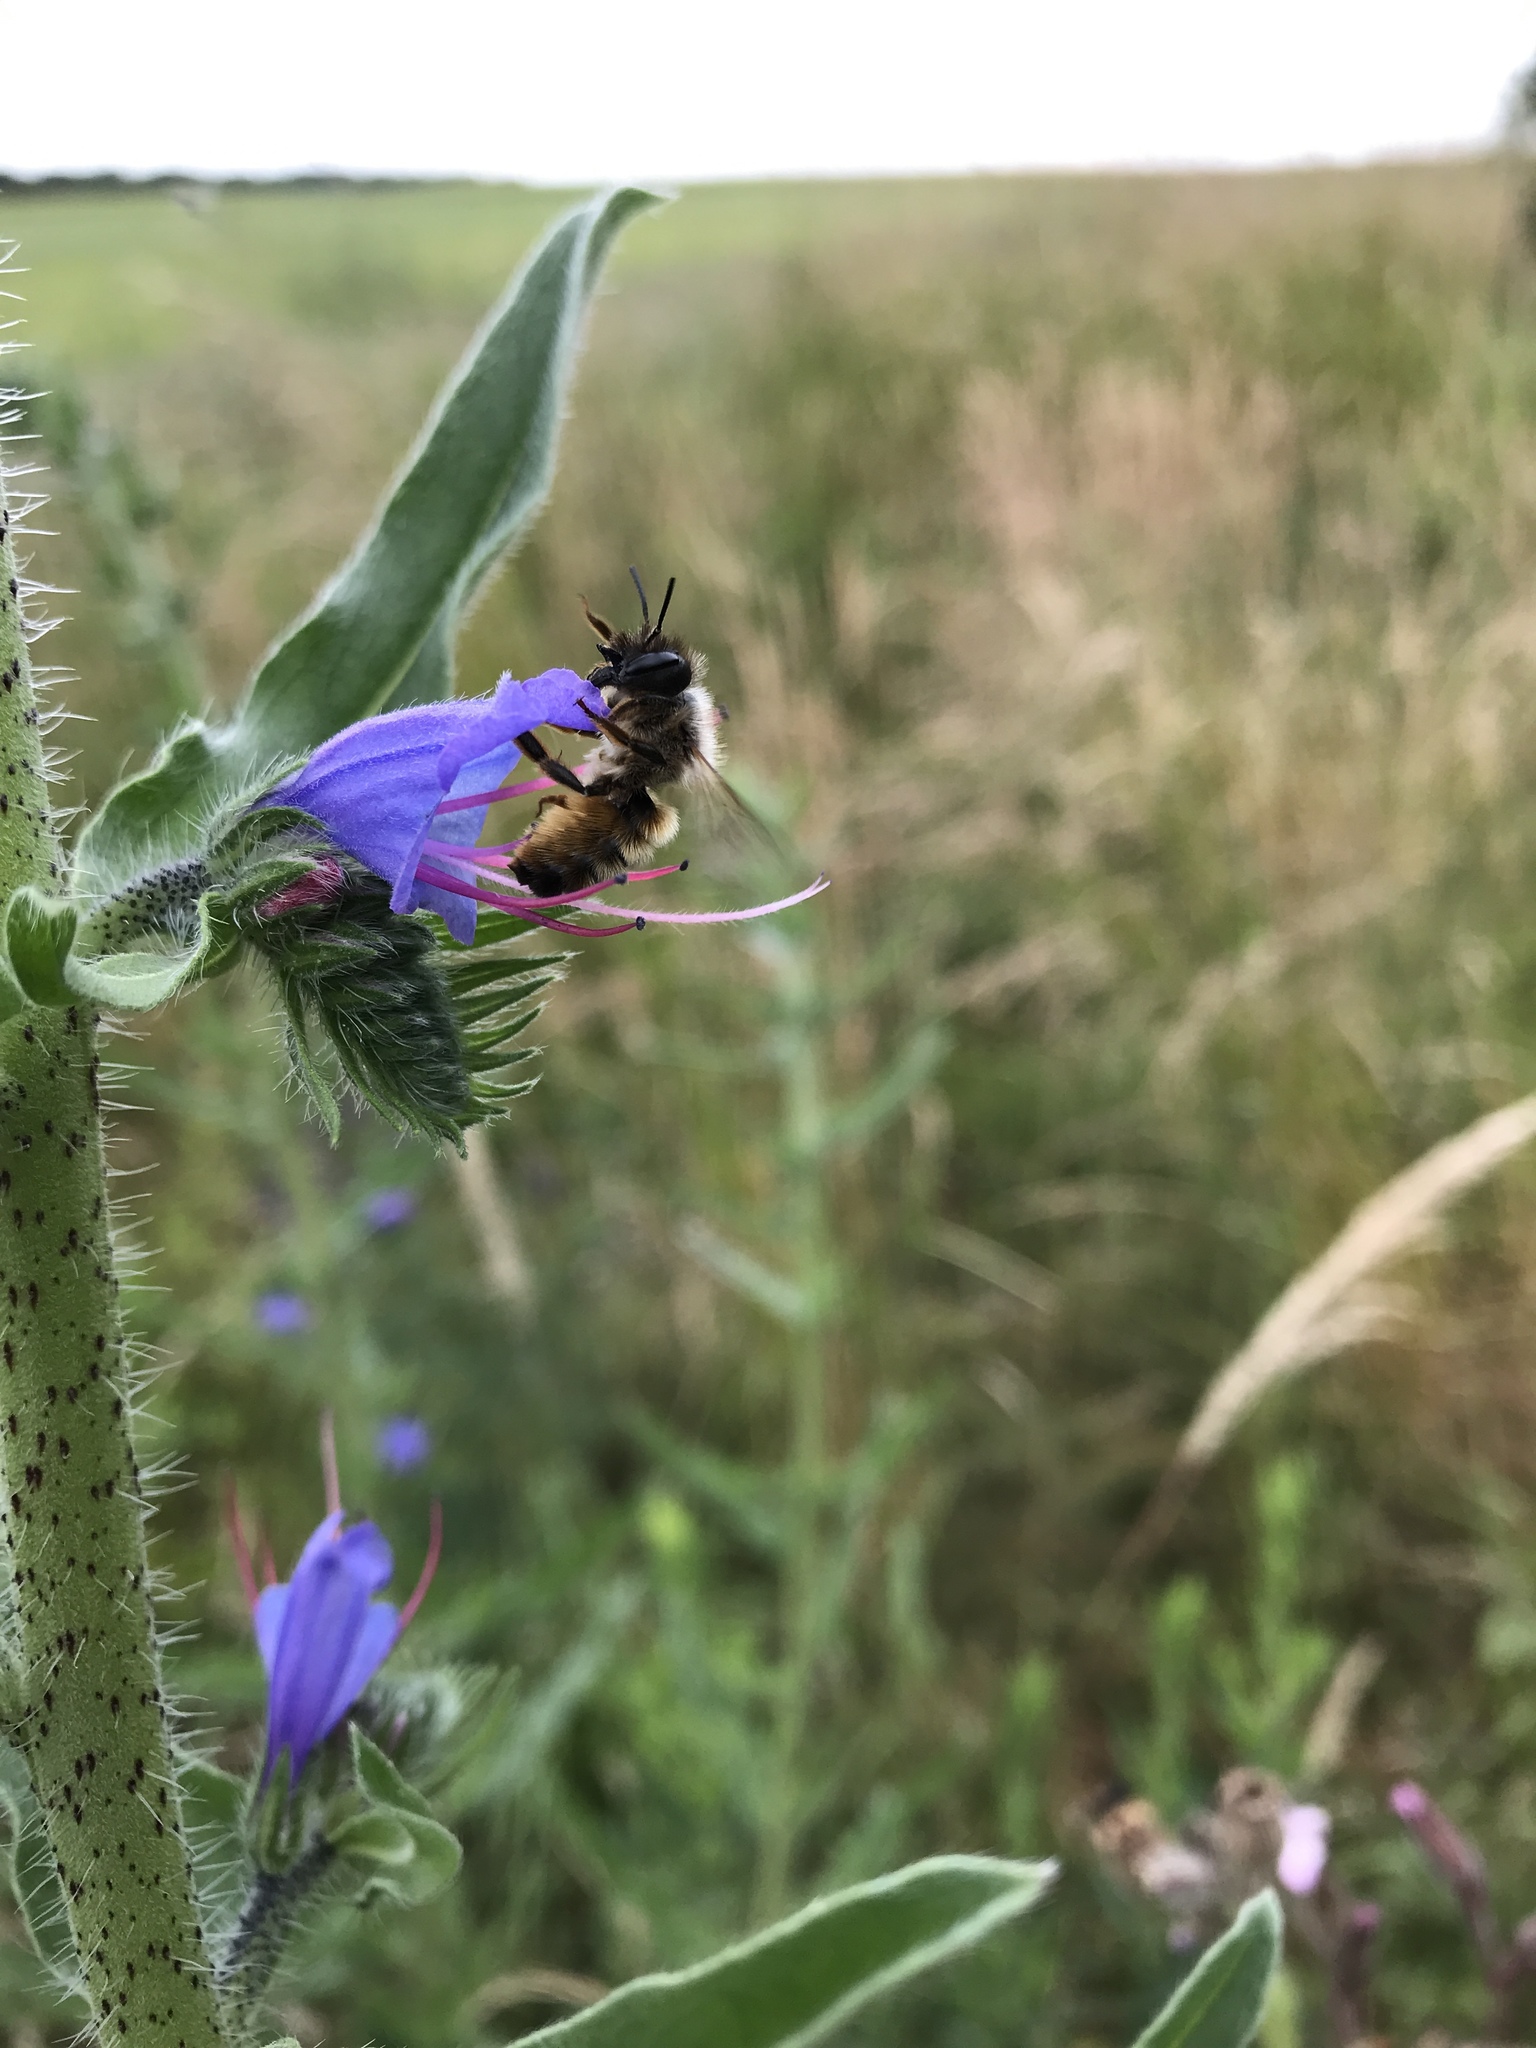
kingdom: Animalia
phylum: Arthropoda
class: Insecta
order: Hymenoptera
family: Megachilidae
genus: Osmia
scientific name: Osmia bicornis
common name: Red mason bee
